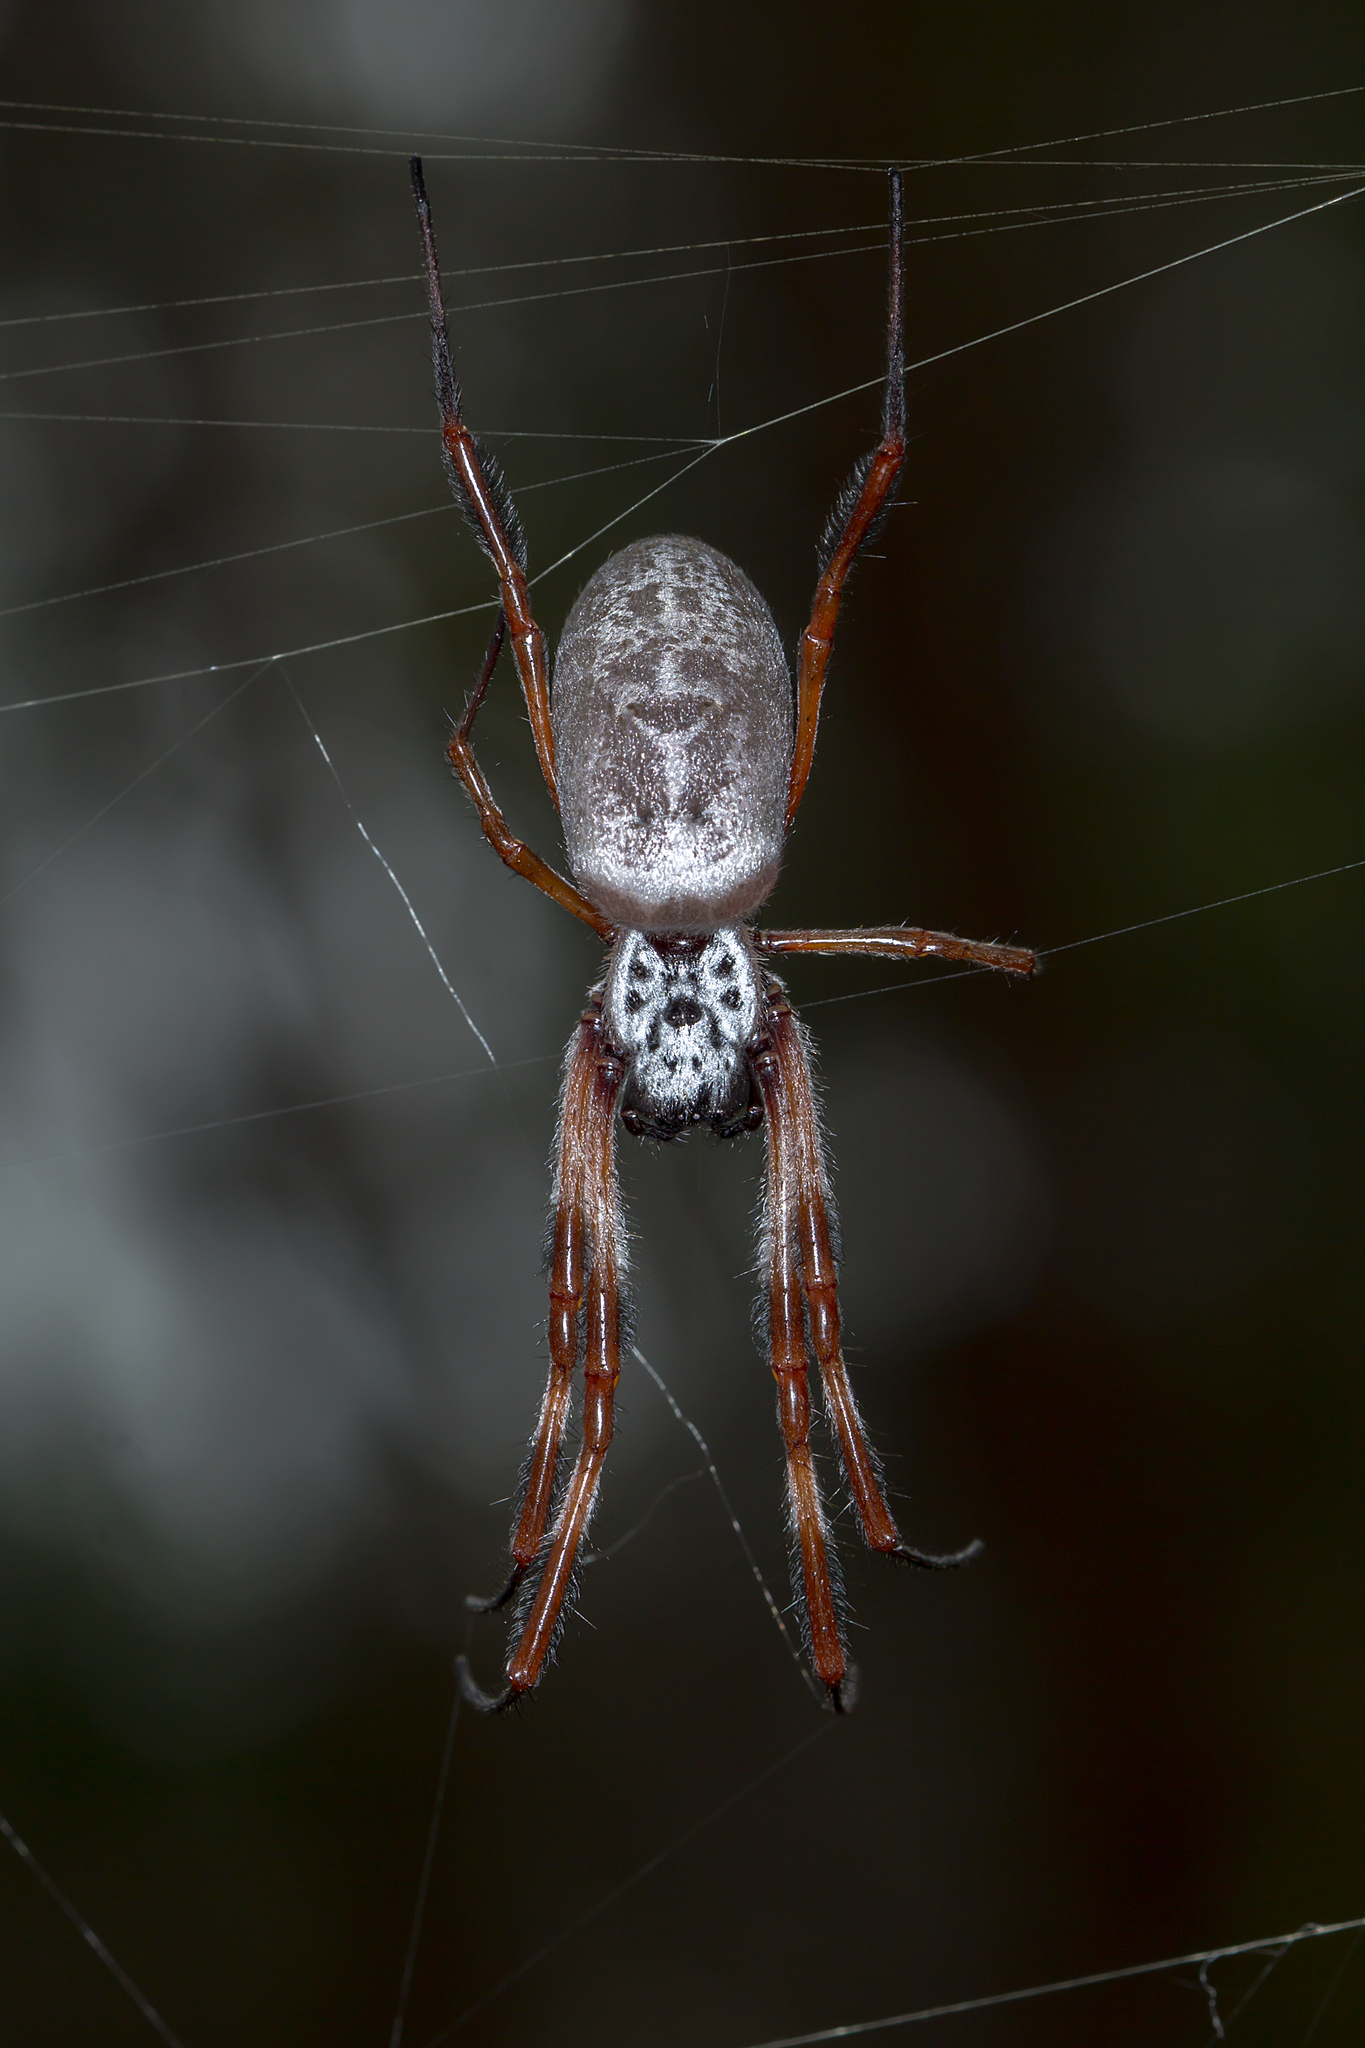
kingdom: Animalia
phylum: Arthropoda
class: Arachnida
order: Araneae
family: Araneidae
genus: Trichonephila
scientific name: Trichonephila edulis
